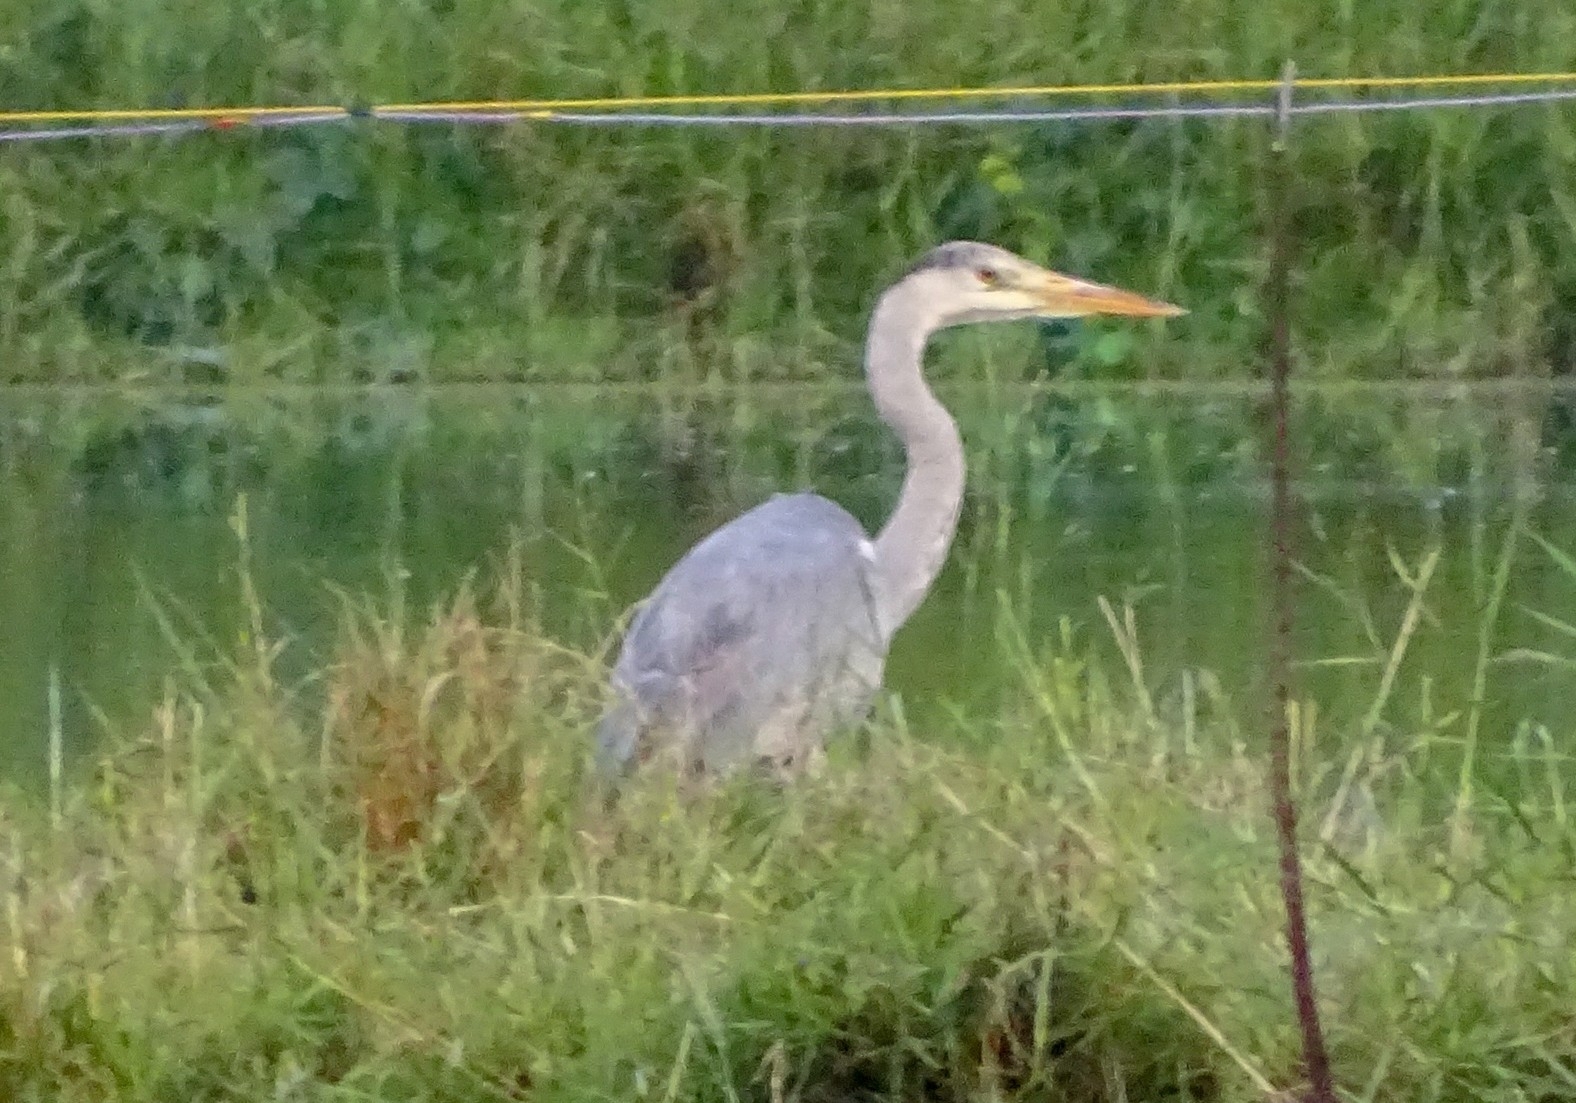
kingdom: Animalia
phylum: Chordata
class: Aves
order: Pelecaniformes
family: Ardeidae
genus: Ardea
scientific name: Ardea cinerea
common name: Grey heron
